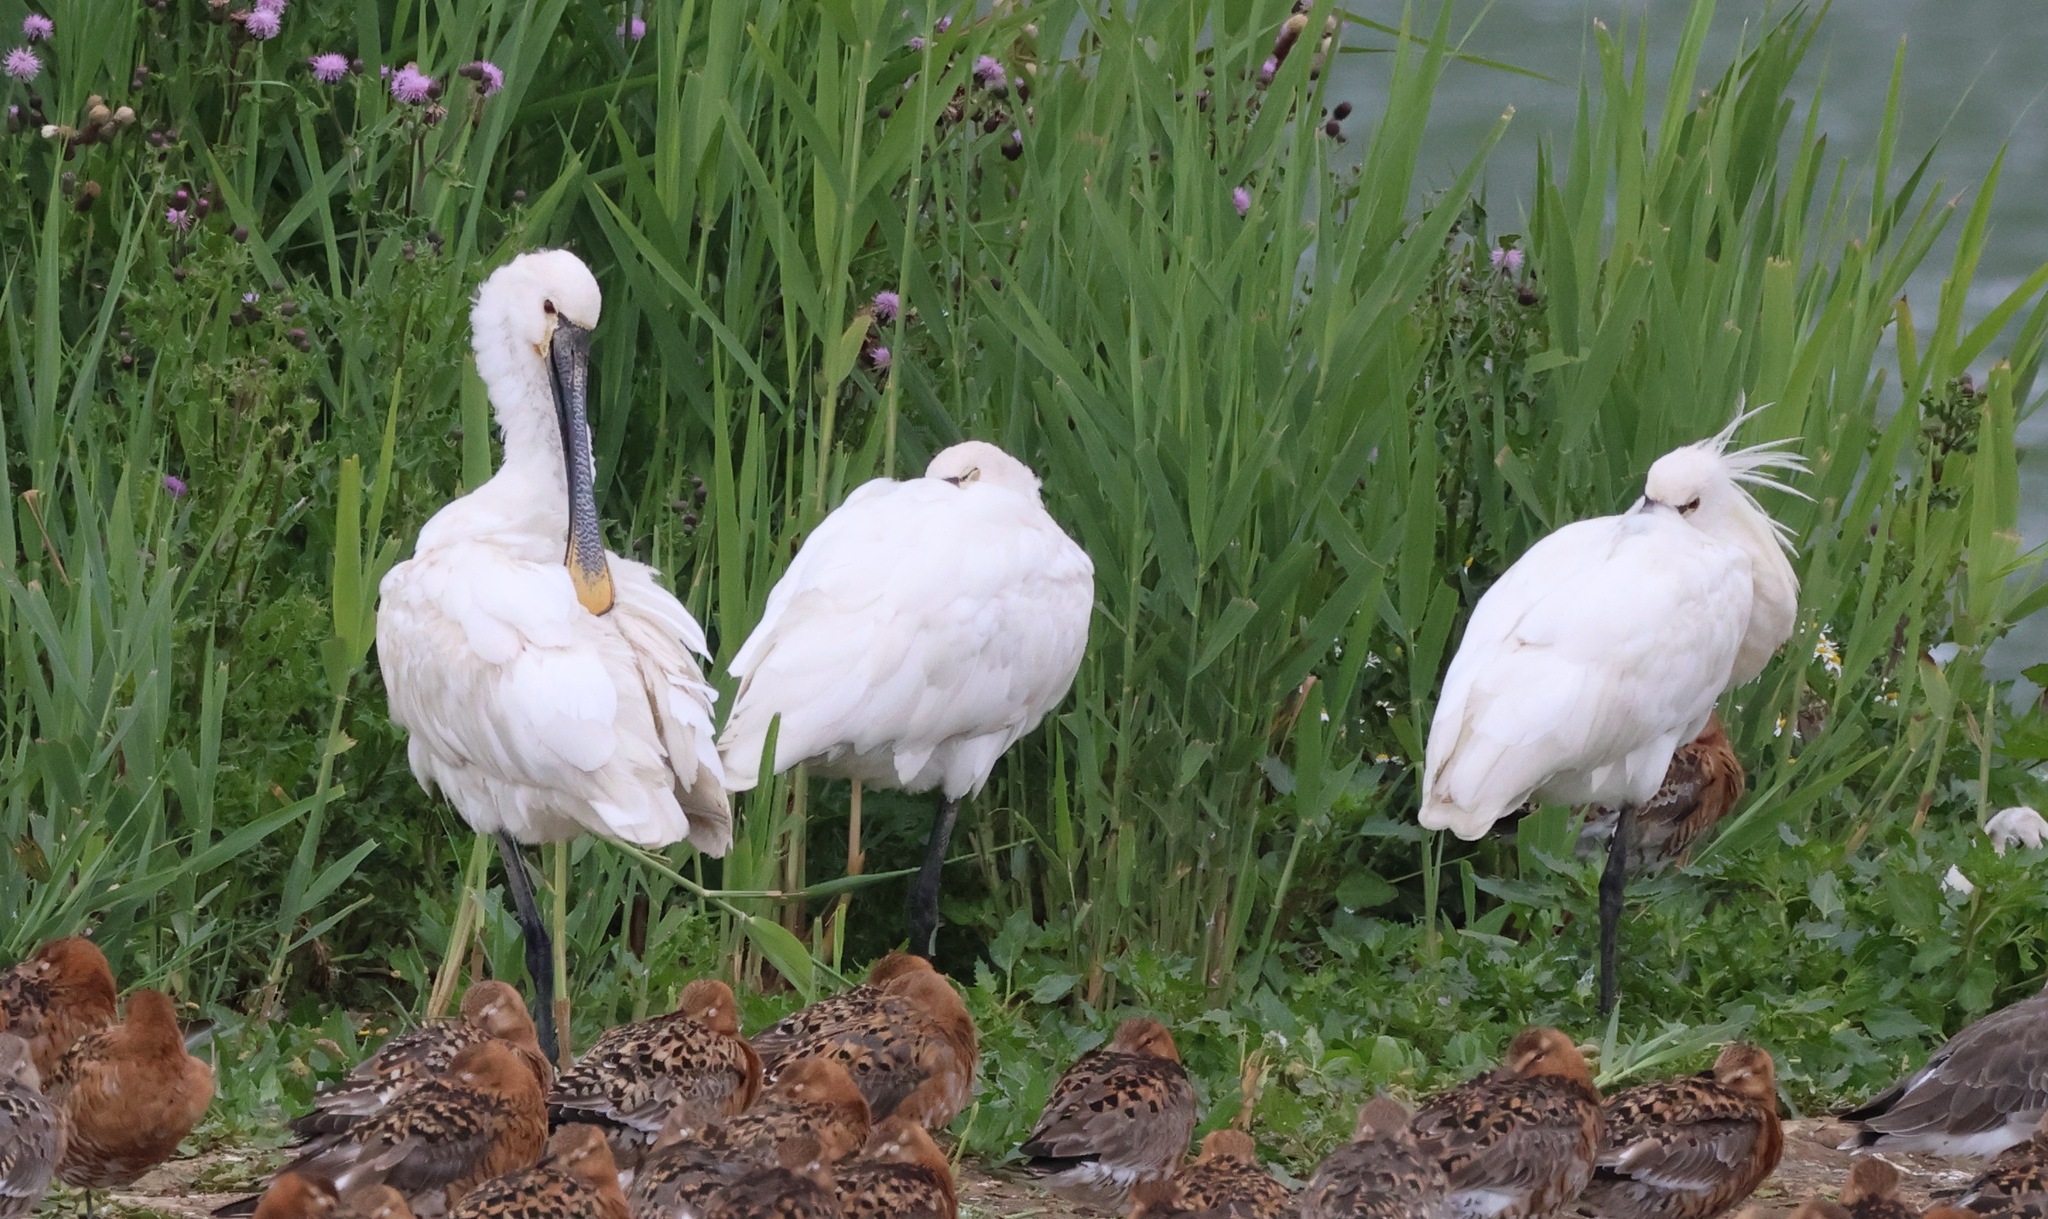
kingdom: Animalia
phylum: Chordata
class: Aves
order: Pelecaniformes
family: Threskiornithidae
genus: Platalea
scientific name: Platalea leucorodia
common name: Eurasian spoonbill
